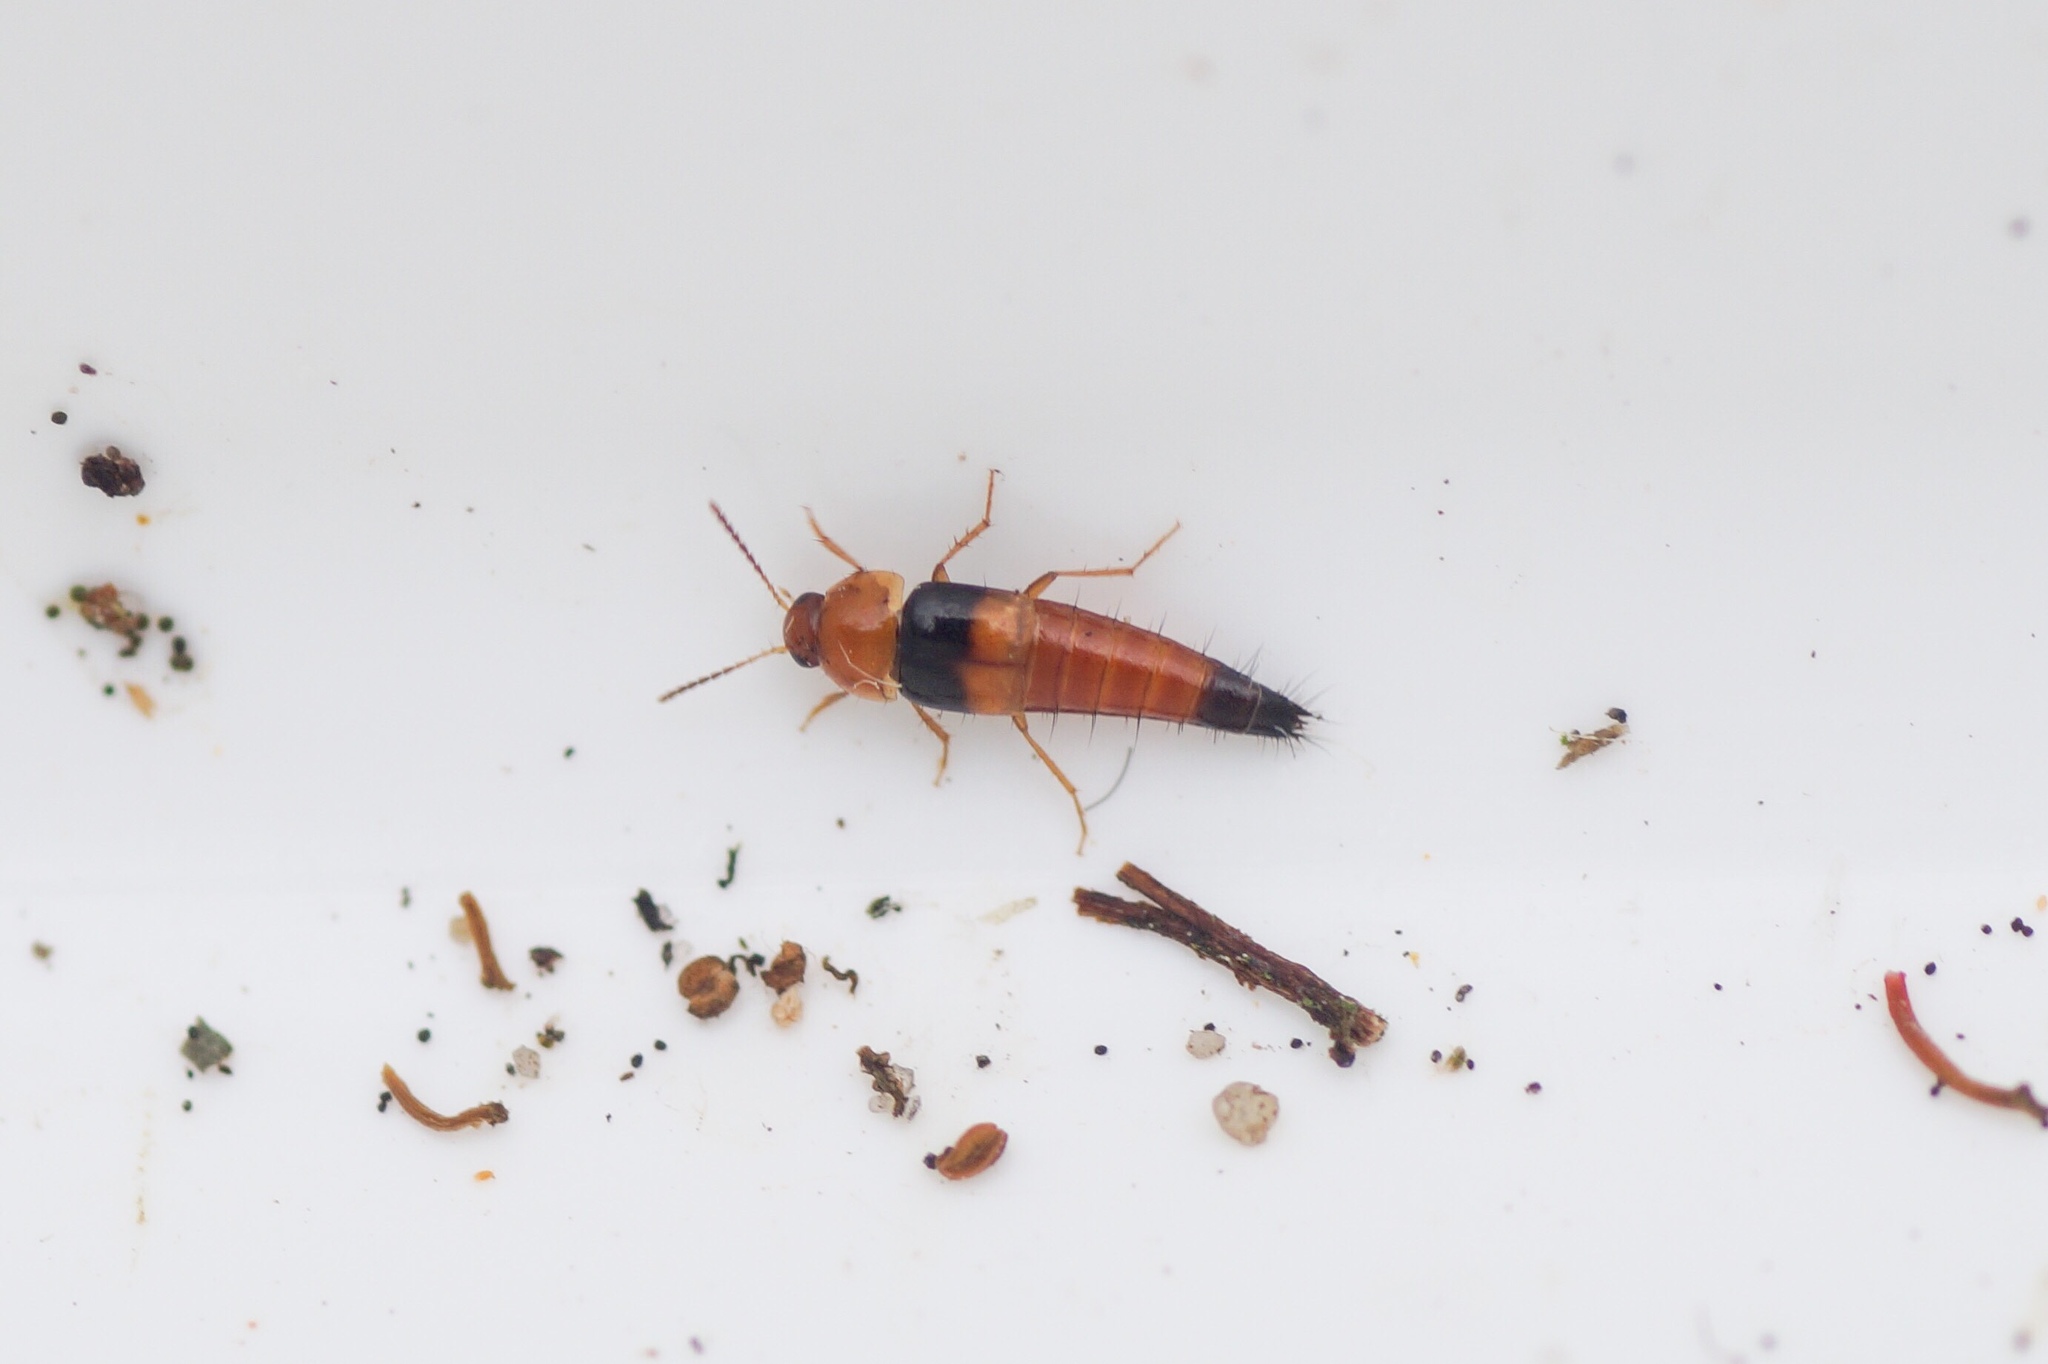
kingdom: Animalia
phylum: Arthropoda
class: Insecta
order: Coleoptera
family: Staphylinidae
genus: Tachyporus
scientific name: Tachyporus obtusus
